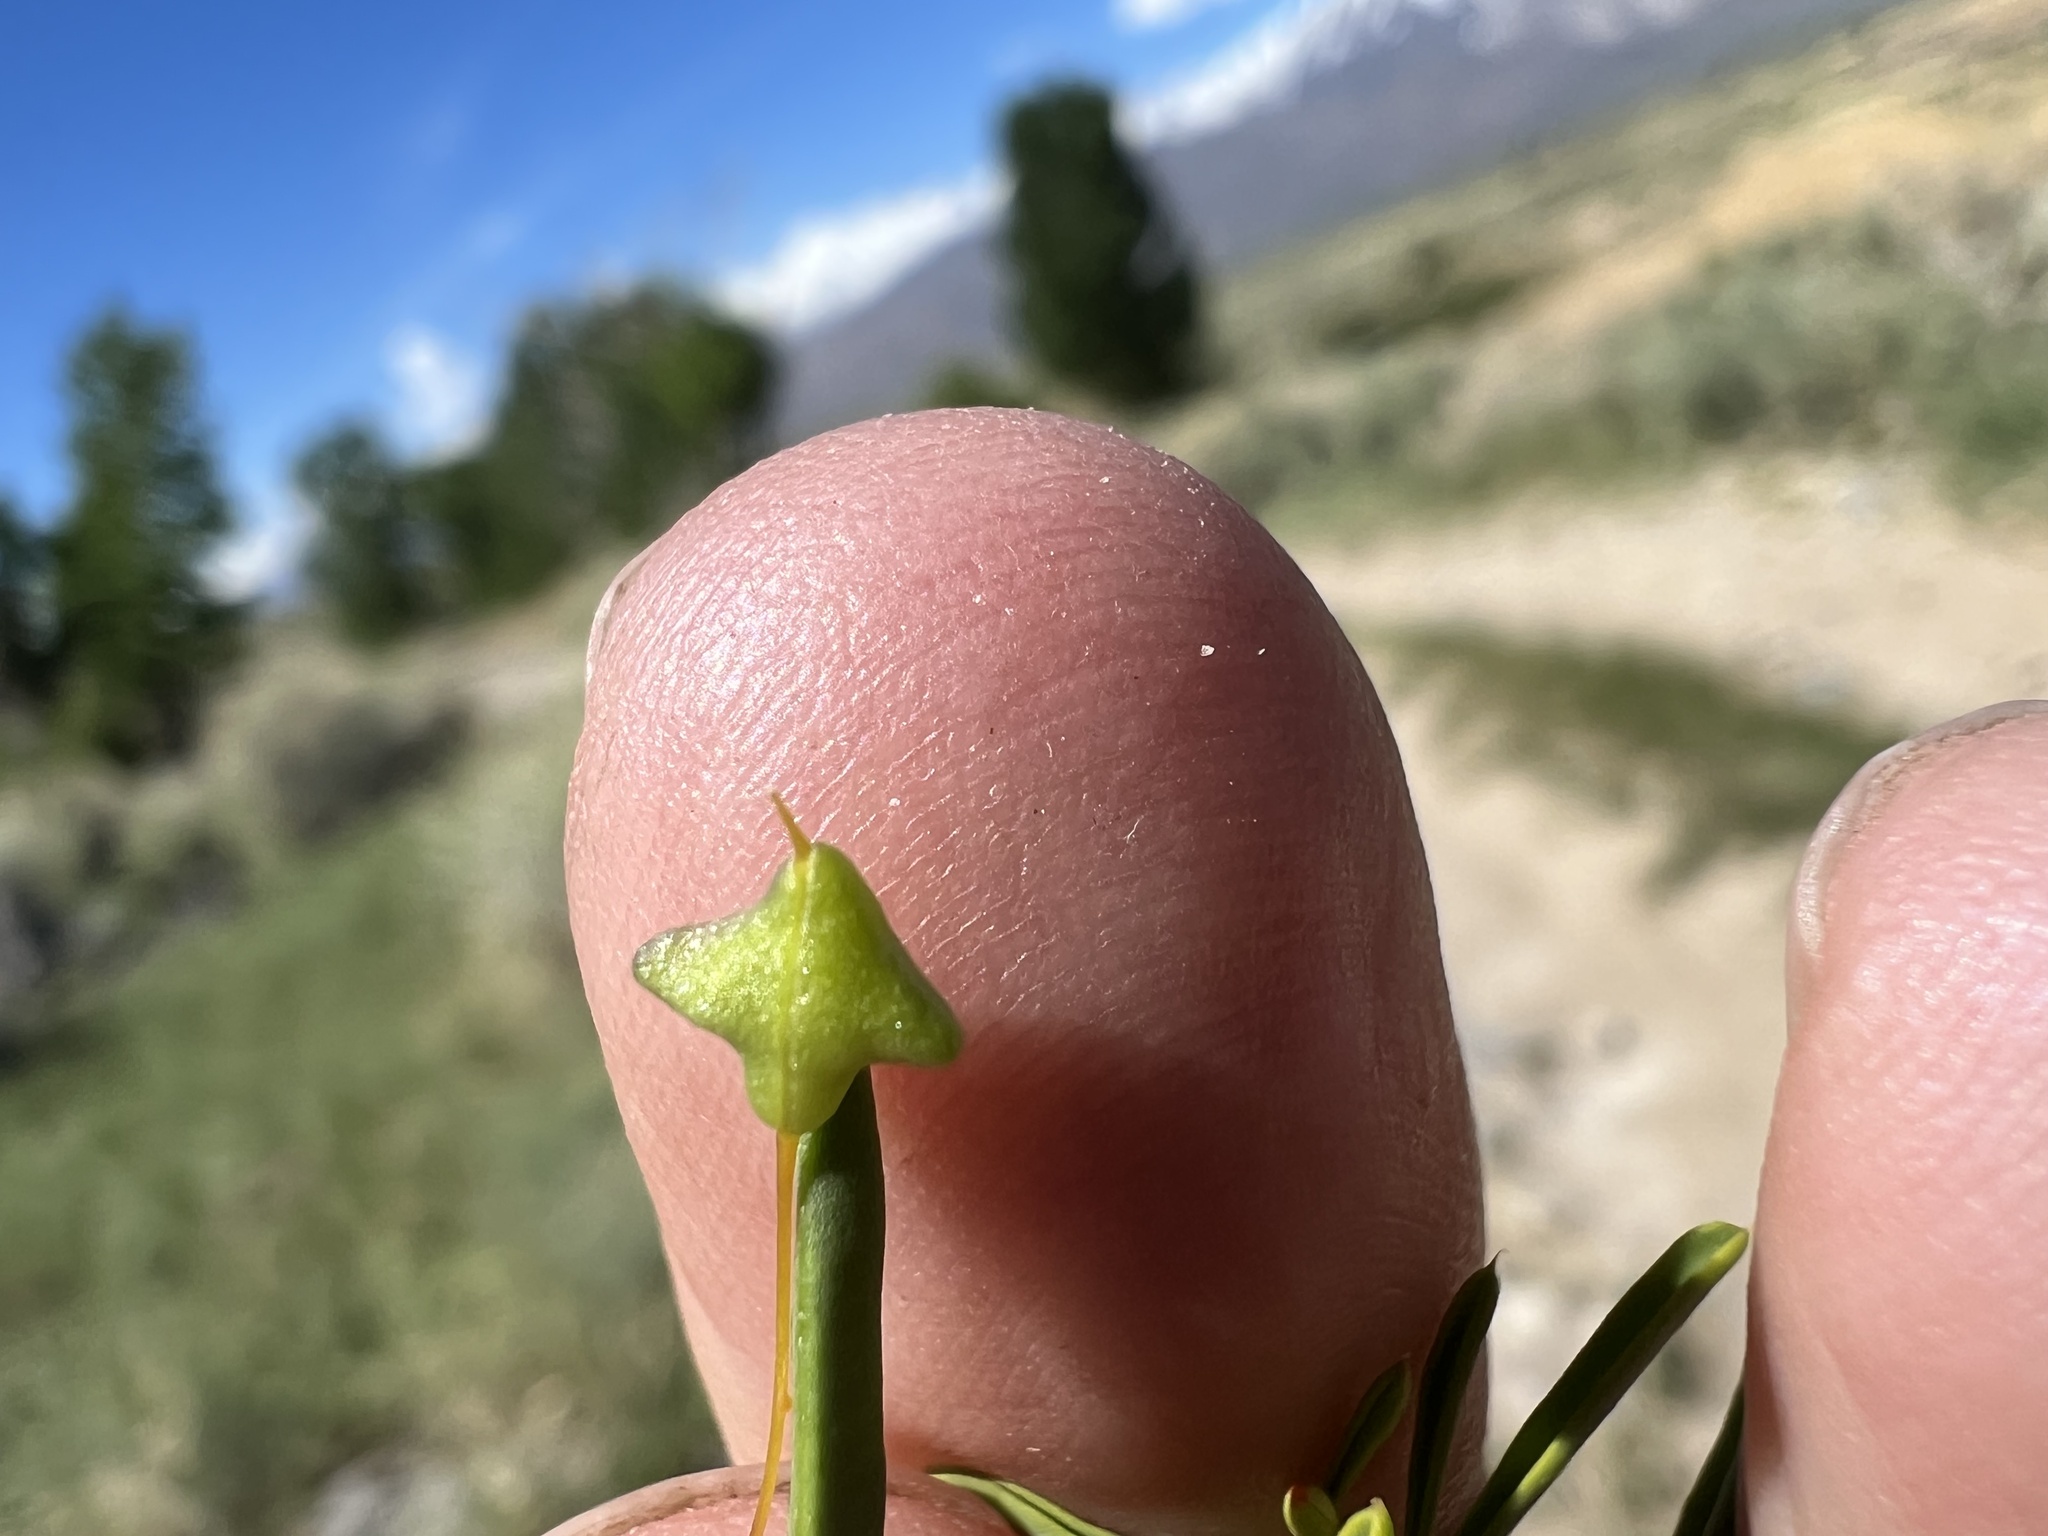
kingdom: Plantae
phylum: Tracheophyta
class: Magnoliopsida
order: Brassicales
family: Cleomaceae
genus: Cleomella
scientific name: Cleomella plocasperma
